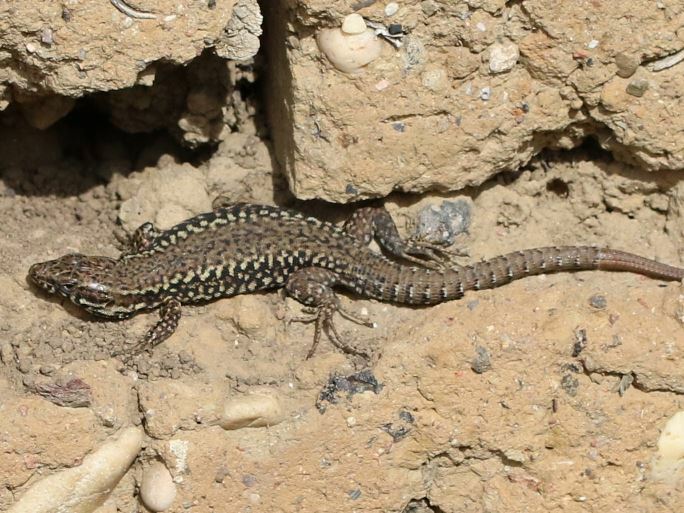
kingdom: Animalia
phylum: Chordata
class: Squamata
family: Lacertidae
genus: Podarcis
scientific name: Podarcis muralis
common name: Common wall lizard
